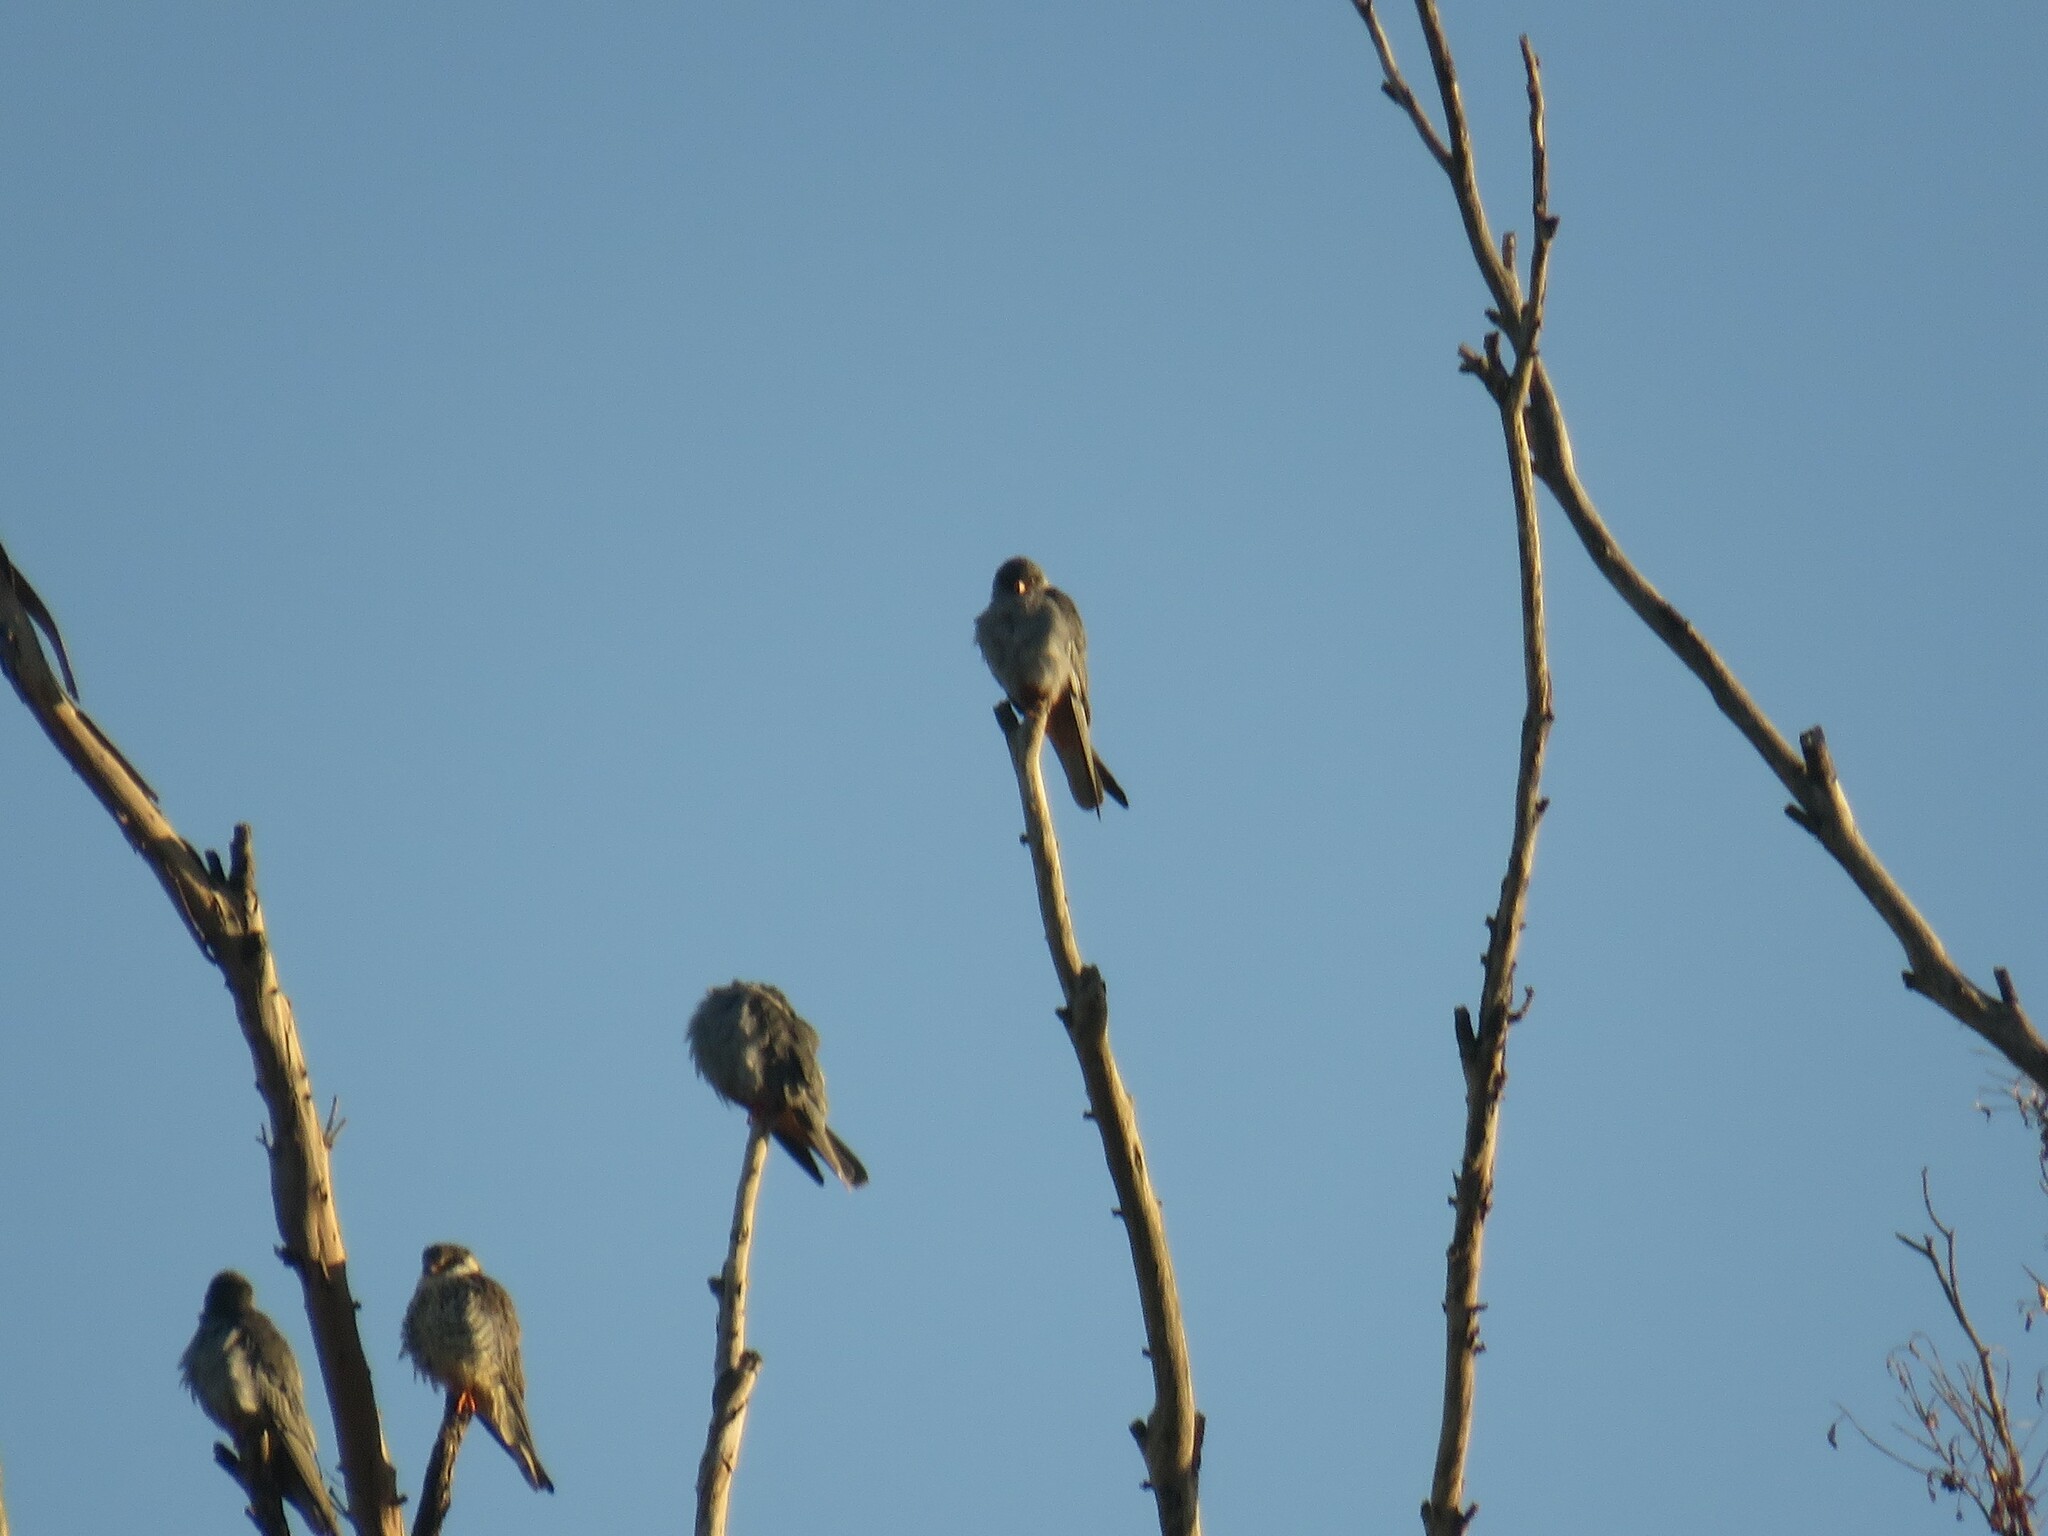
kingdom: Animalia
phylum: Chordata
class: Aves
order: Falconiformes
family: Falconidae
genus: Falco
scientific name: Falco amurensis
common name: Amur falcon
